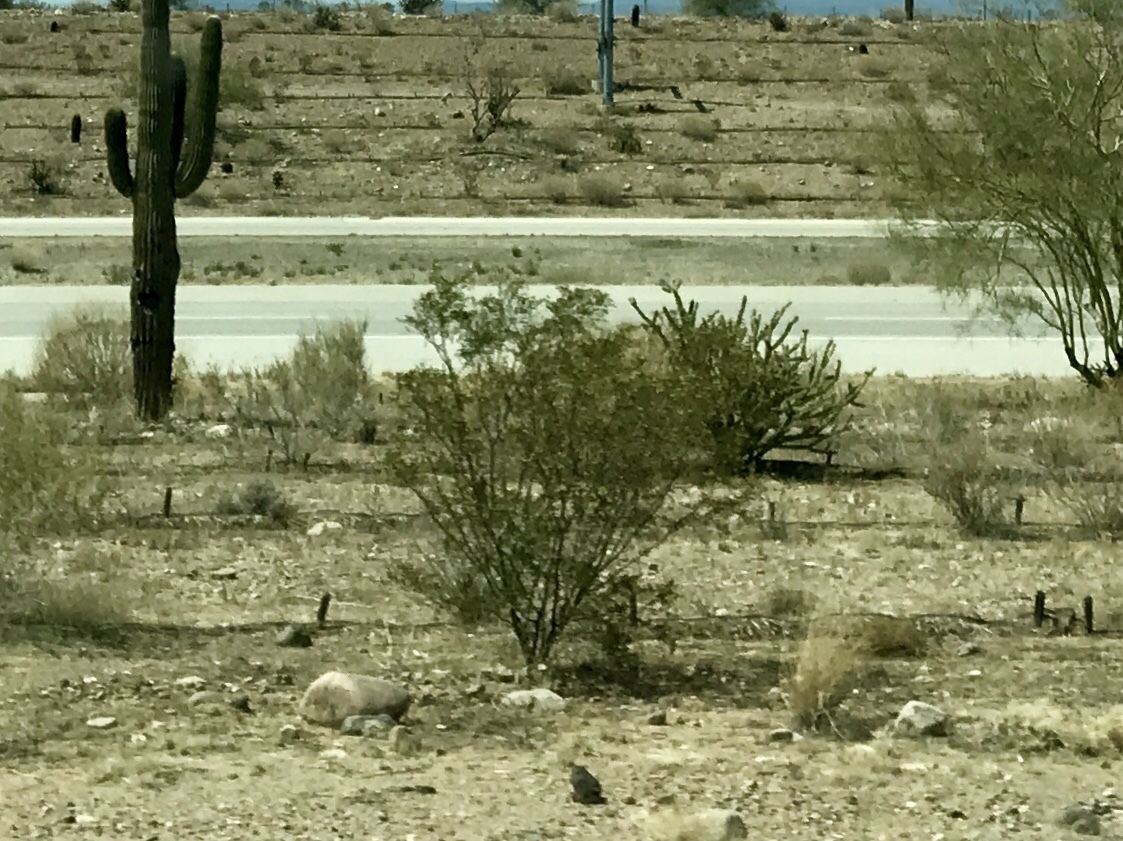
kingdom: Plantae
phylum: Tracheophyta
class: Magnoliopsida
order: Zygophyllales
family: Zygophyllaceae
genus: Larrea
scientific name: Larrea tridentata
